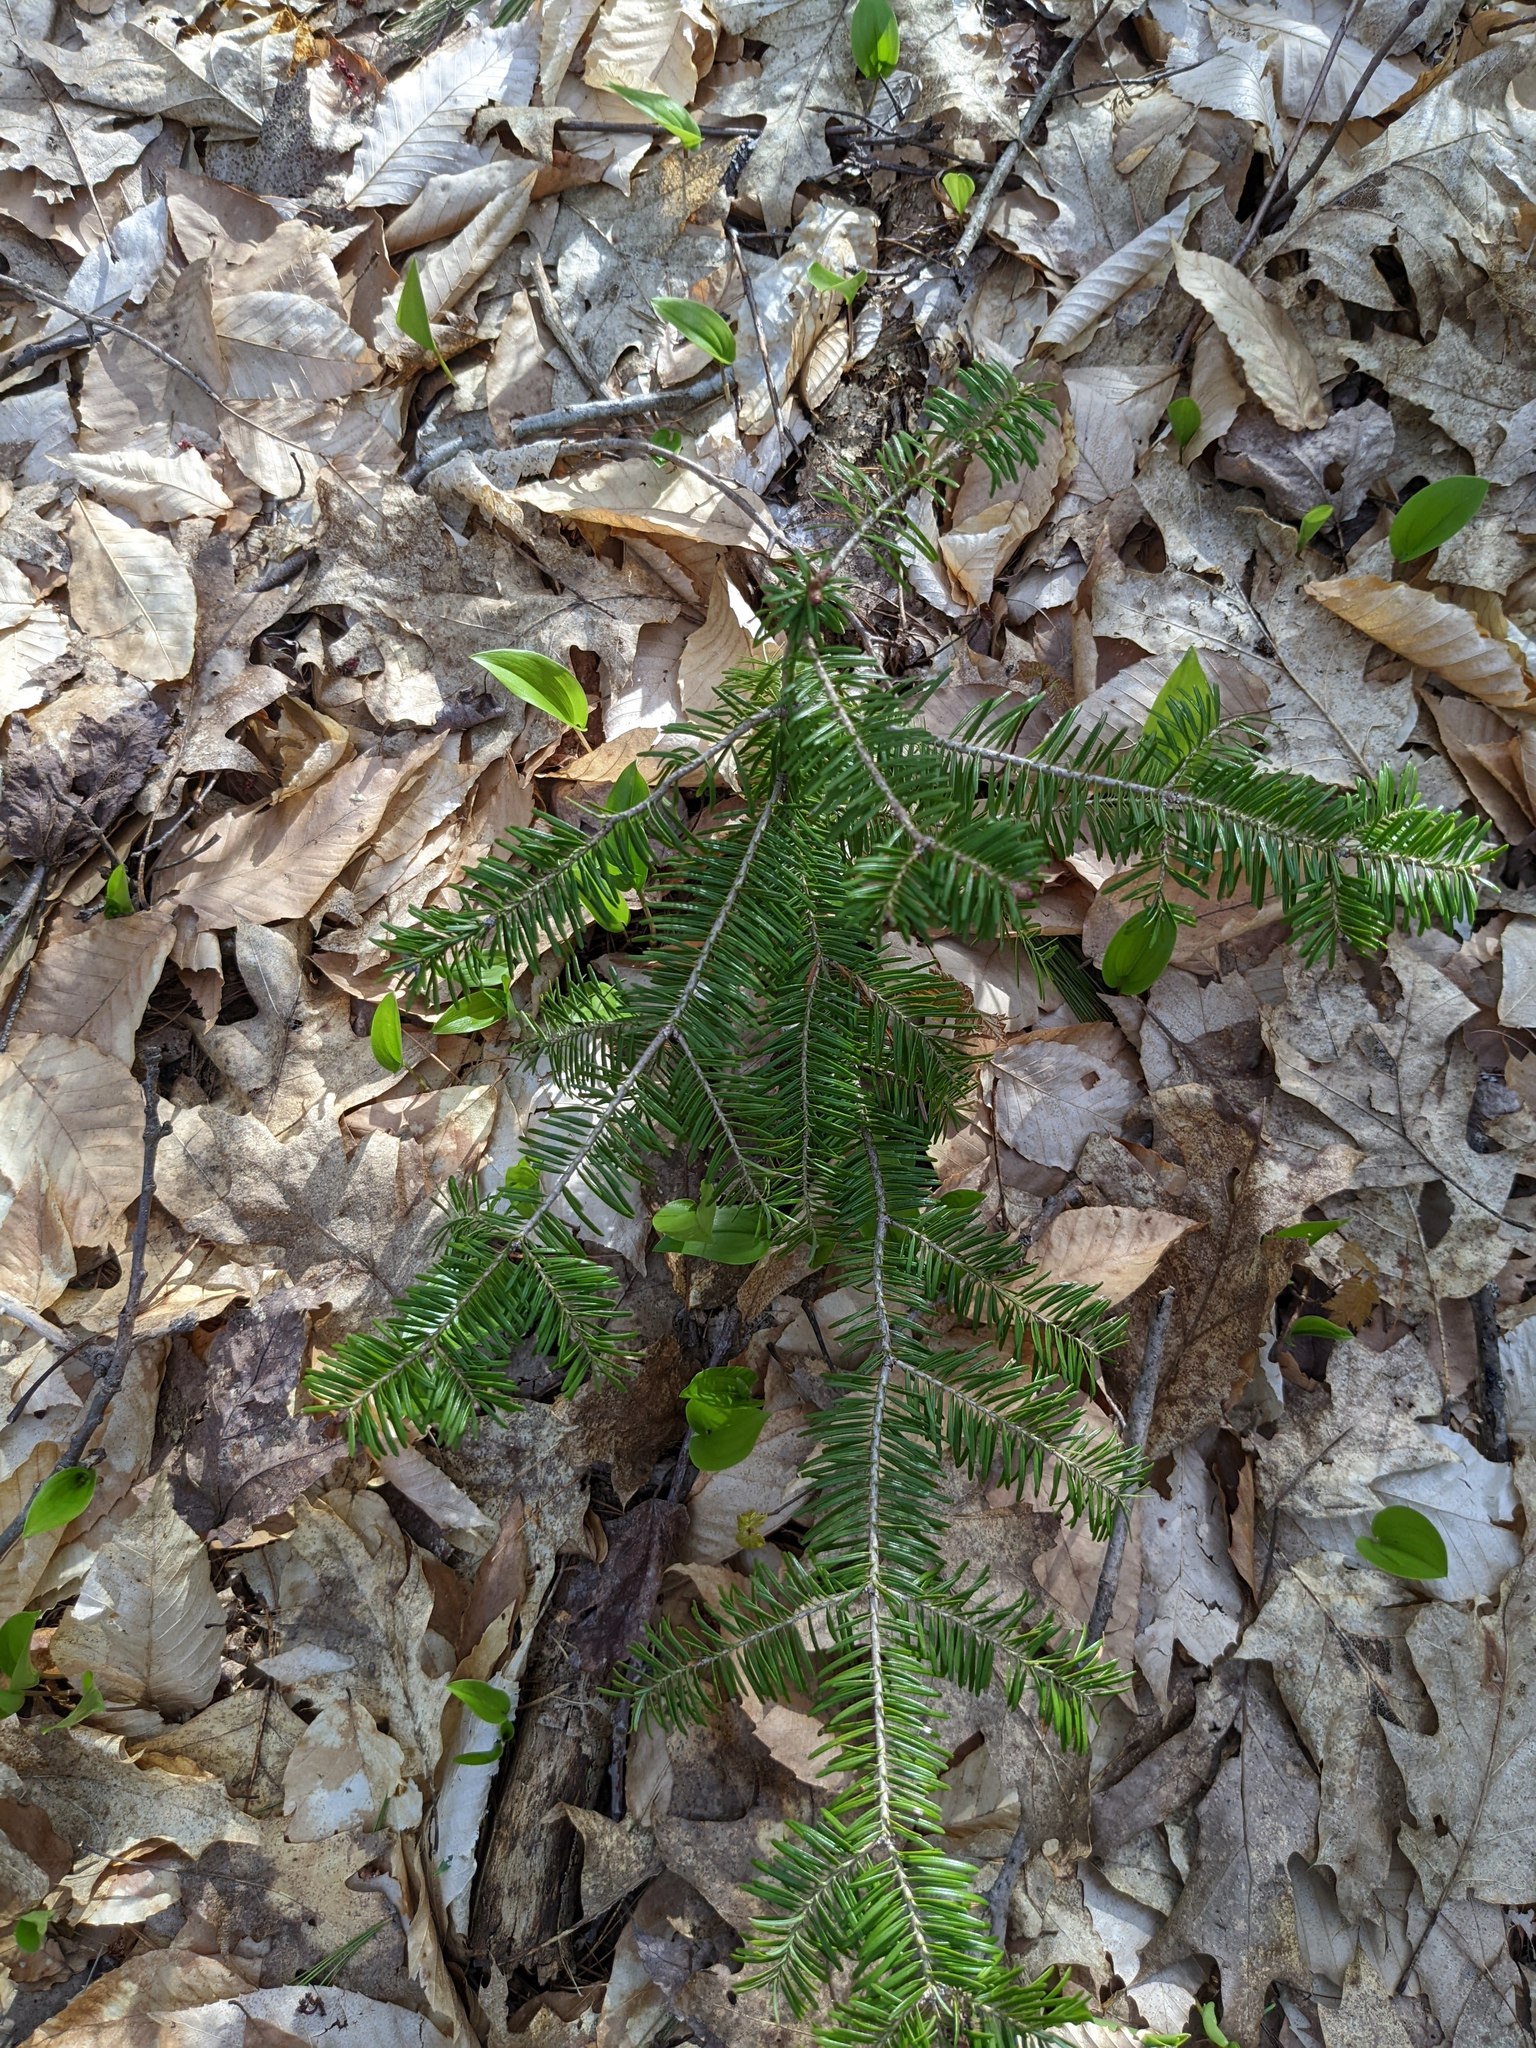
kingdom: Plantae
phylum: Tracheophyta
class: Liliopsida
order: Asparagales
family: Asparagaceae
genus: Maianthemum
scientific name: Maianthemum canadense
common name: False lily-of-the-valley
